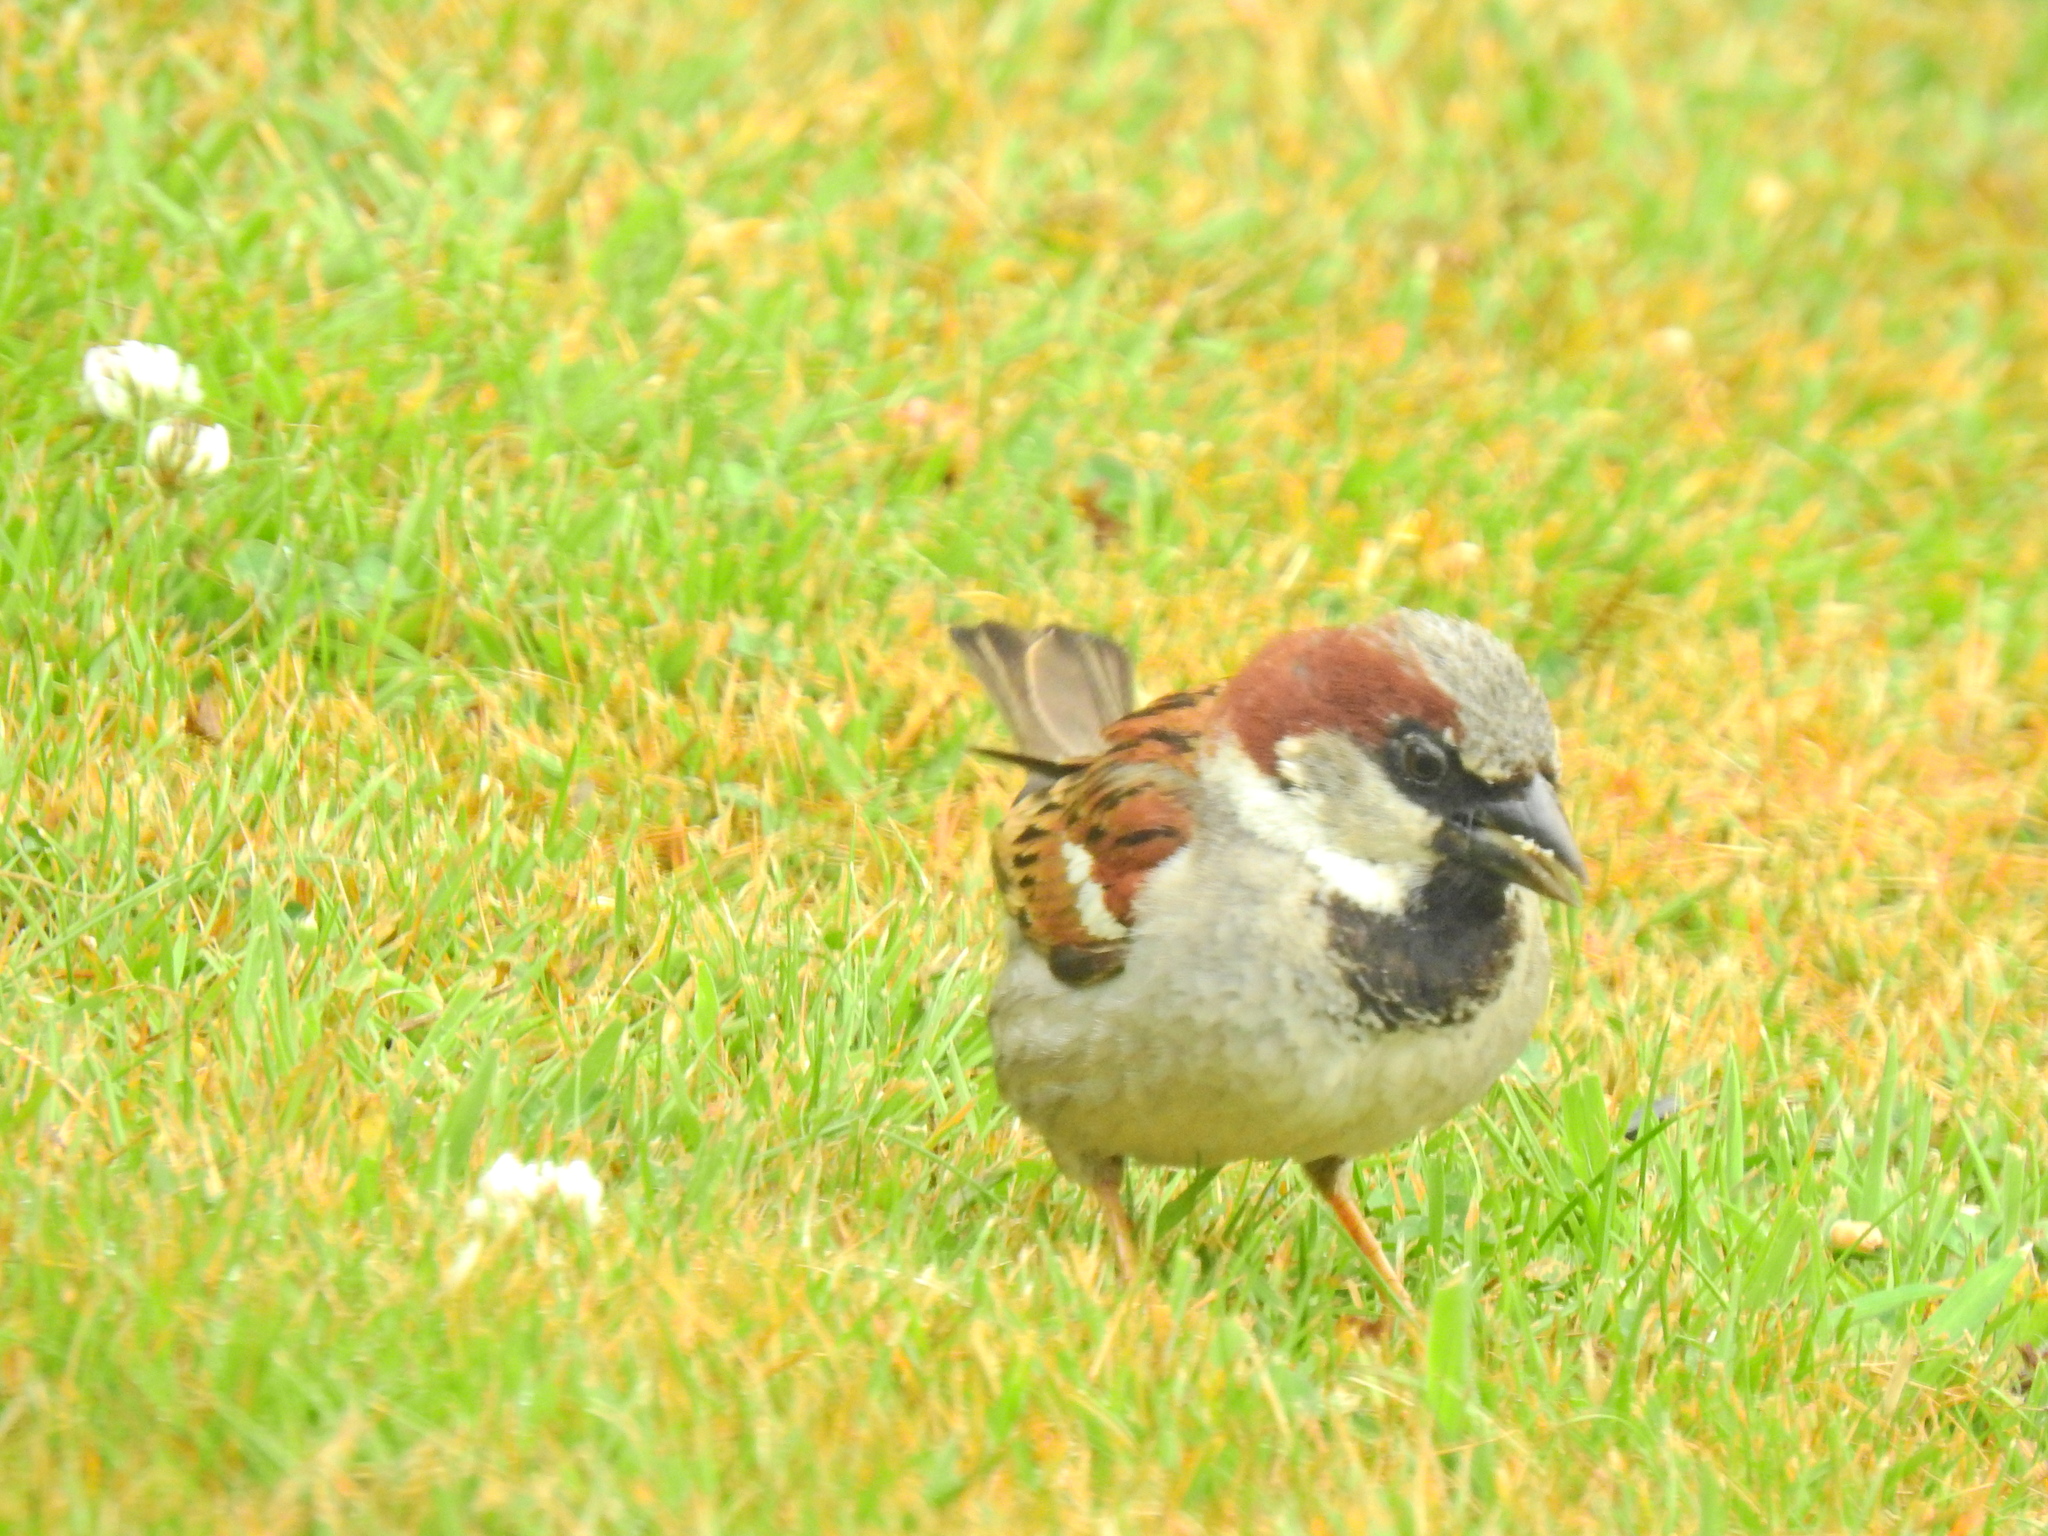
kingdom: Animalia
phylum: Chordata
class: Aves
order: Passeriformes
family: Passeridae
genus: Passer
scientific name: Passer domesticus
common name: House sparrow
